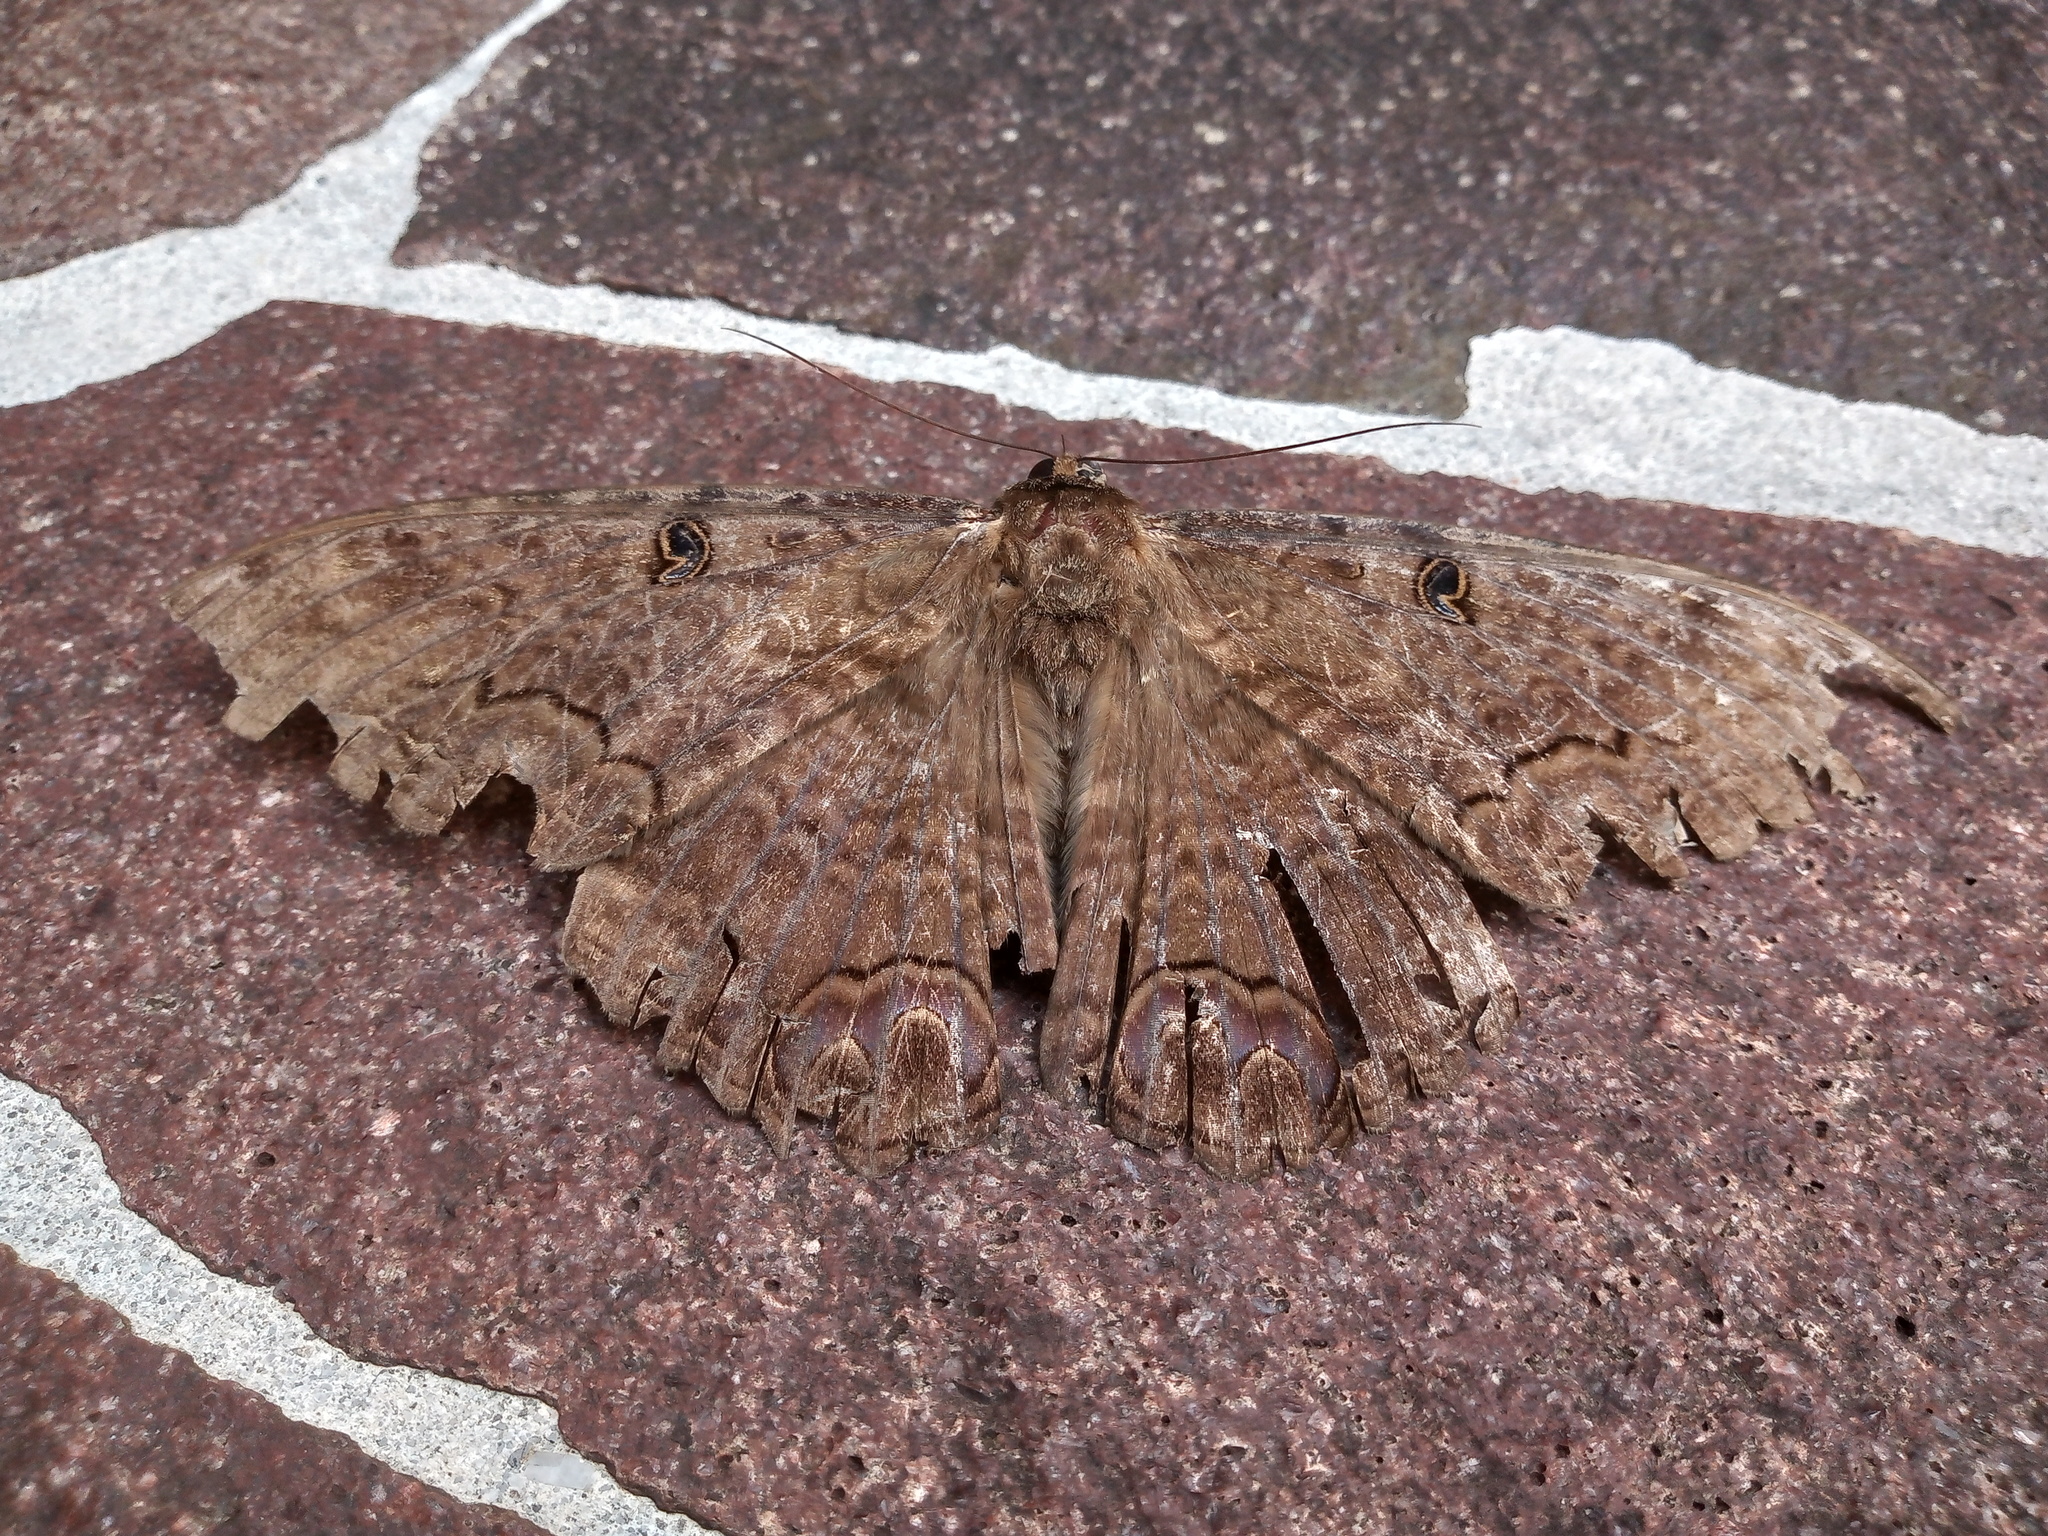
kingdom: Animalia
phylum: Arthropoda
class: Insecta
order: Lepidoptera
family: Erebidae
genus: Ascalapha
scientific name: Ascalapha odorata
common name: Black witch
